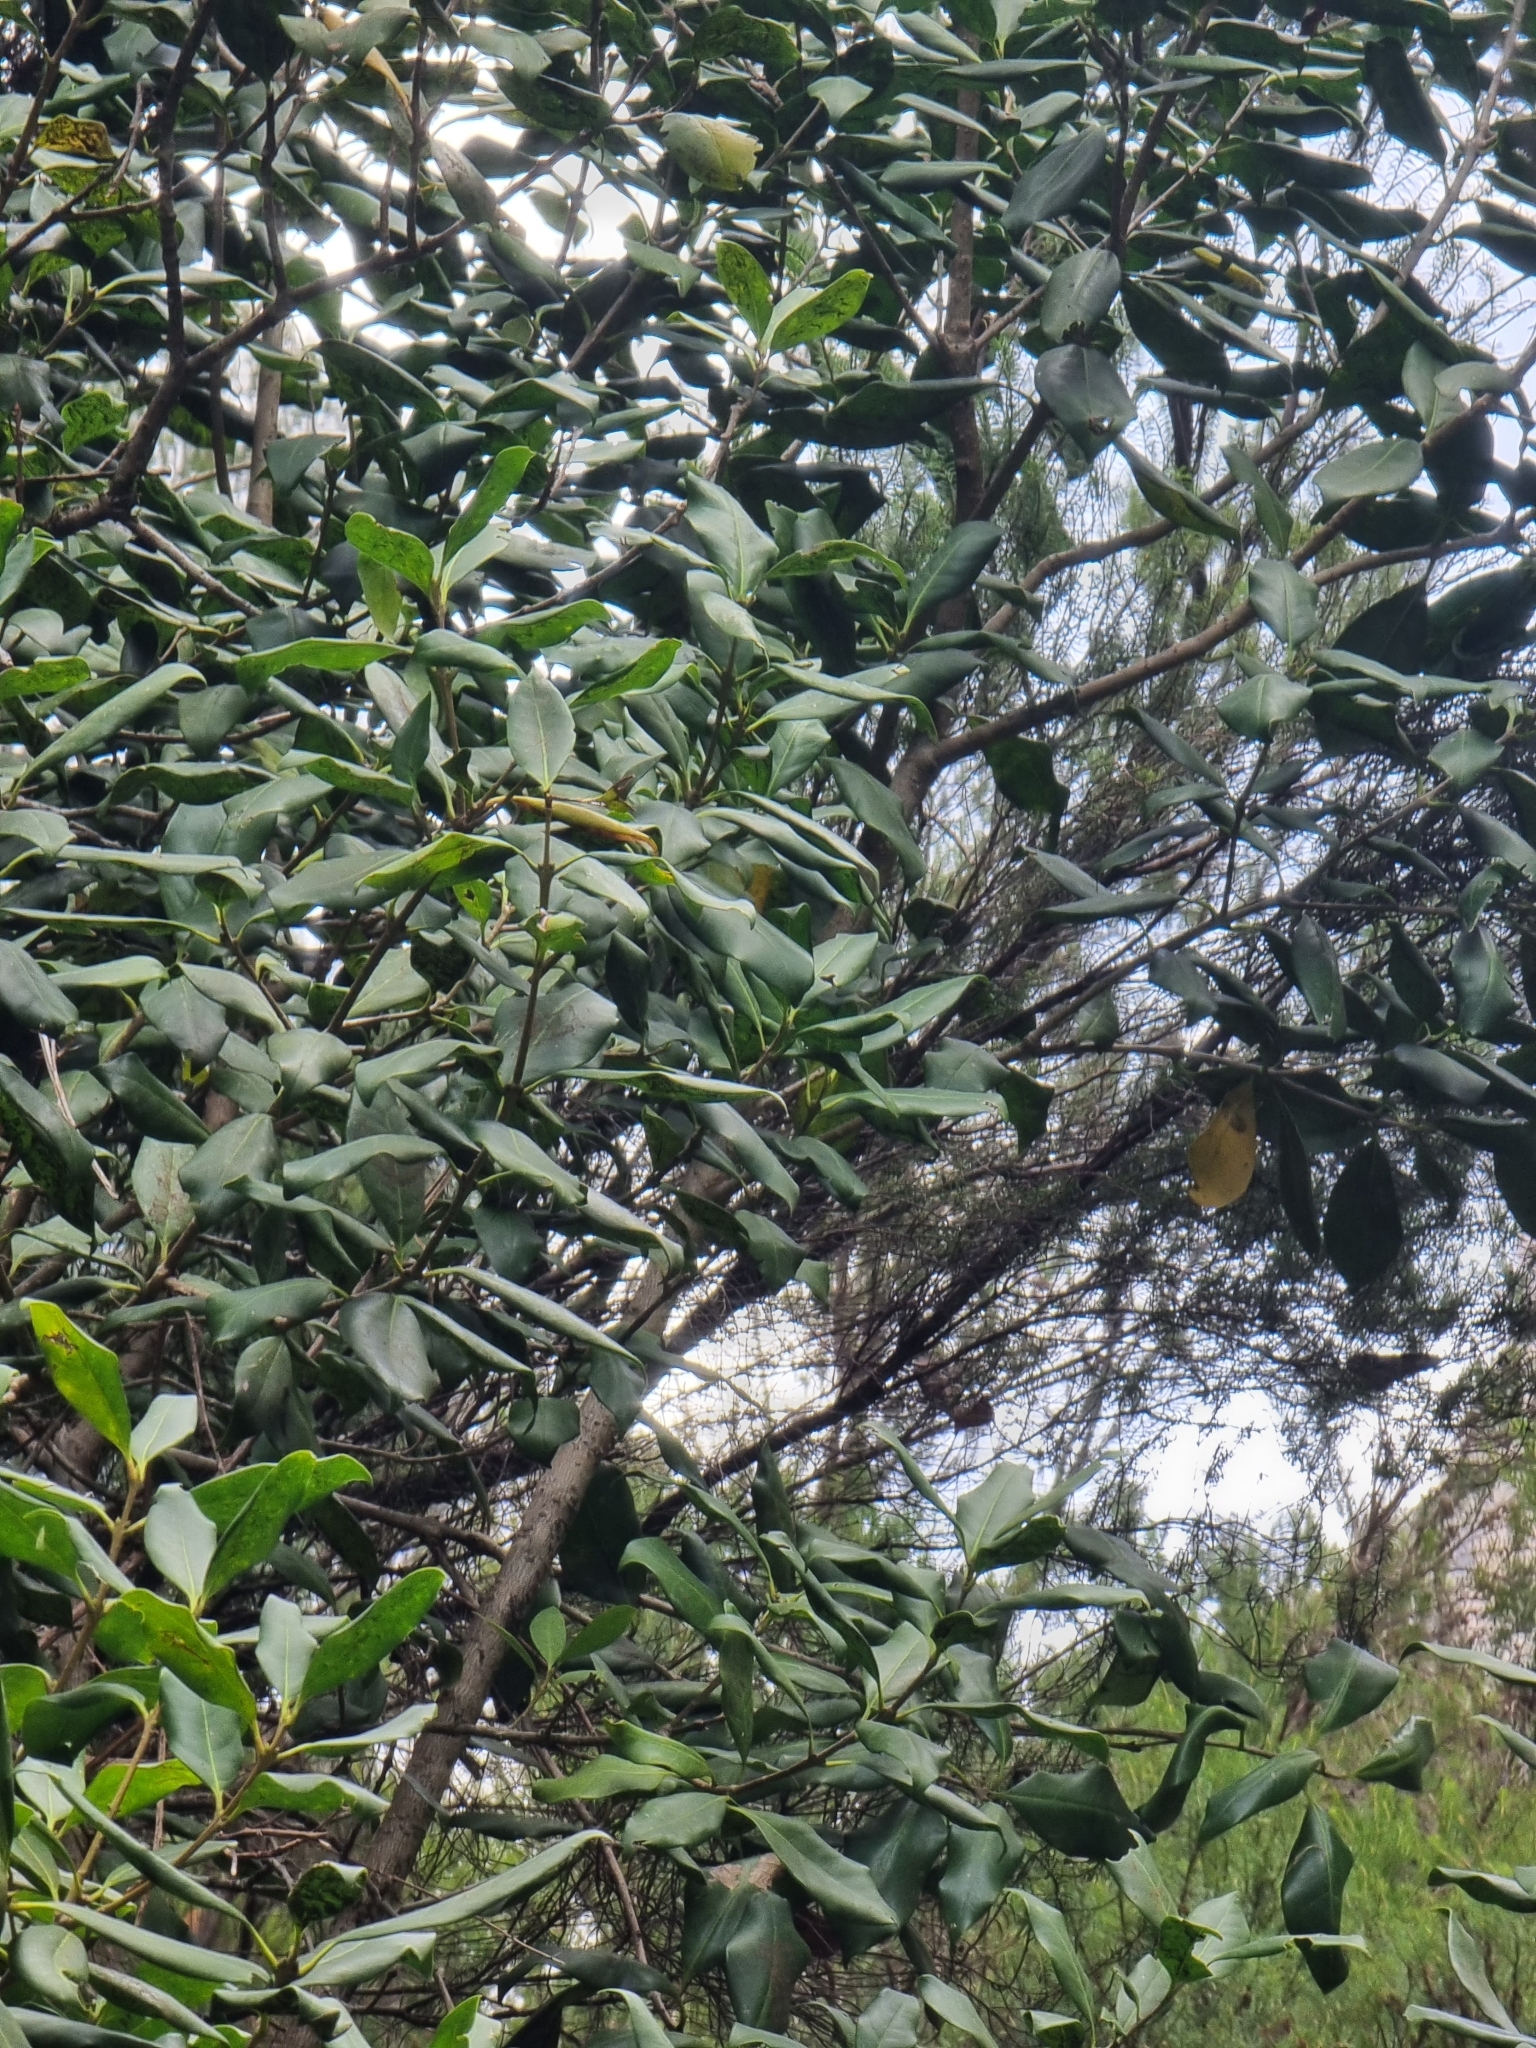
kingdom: Plantae
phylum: Tracheophyta
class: Magnoliopsida
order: Lamiales
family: Oleaceae
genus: Picconia
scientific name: Picconia excelsa
